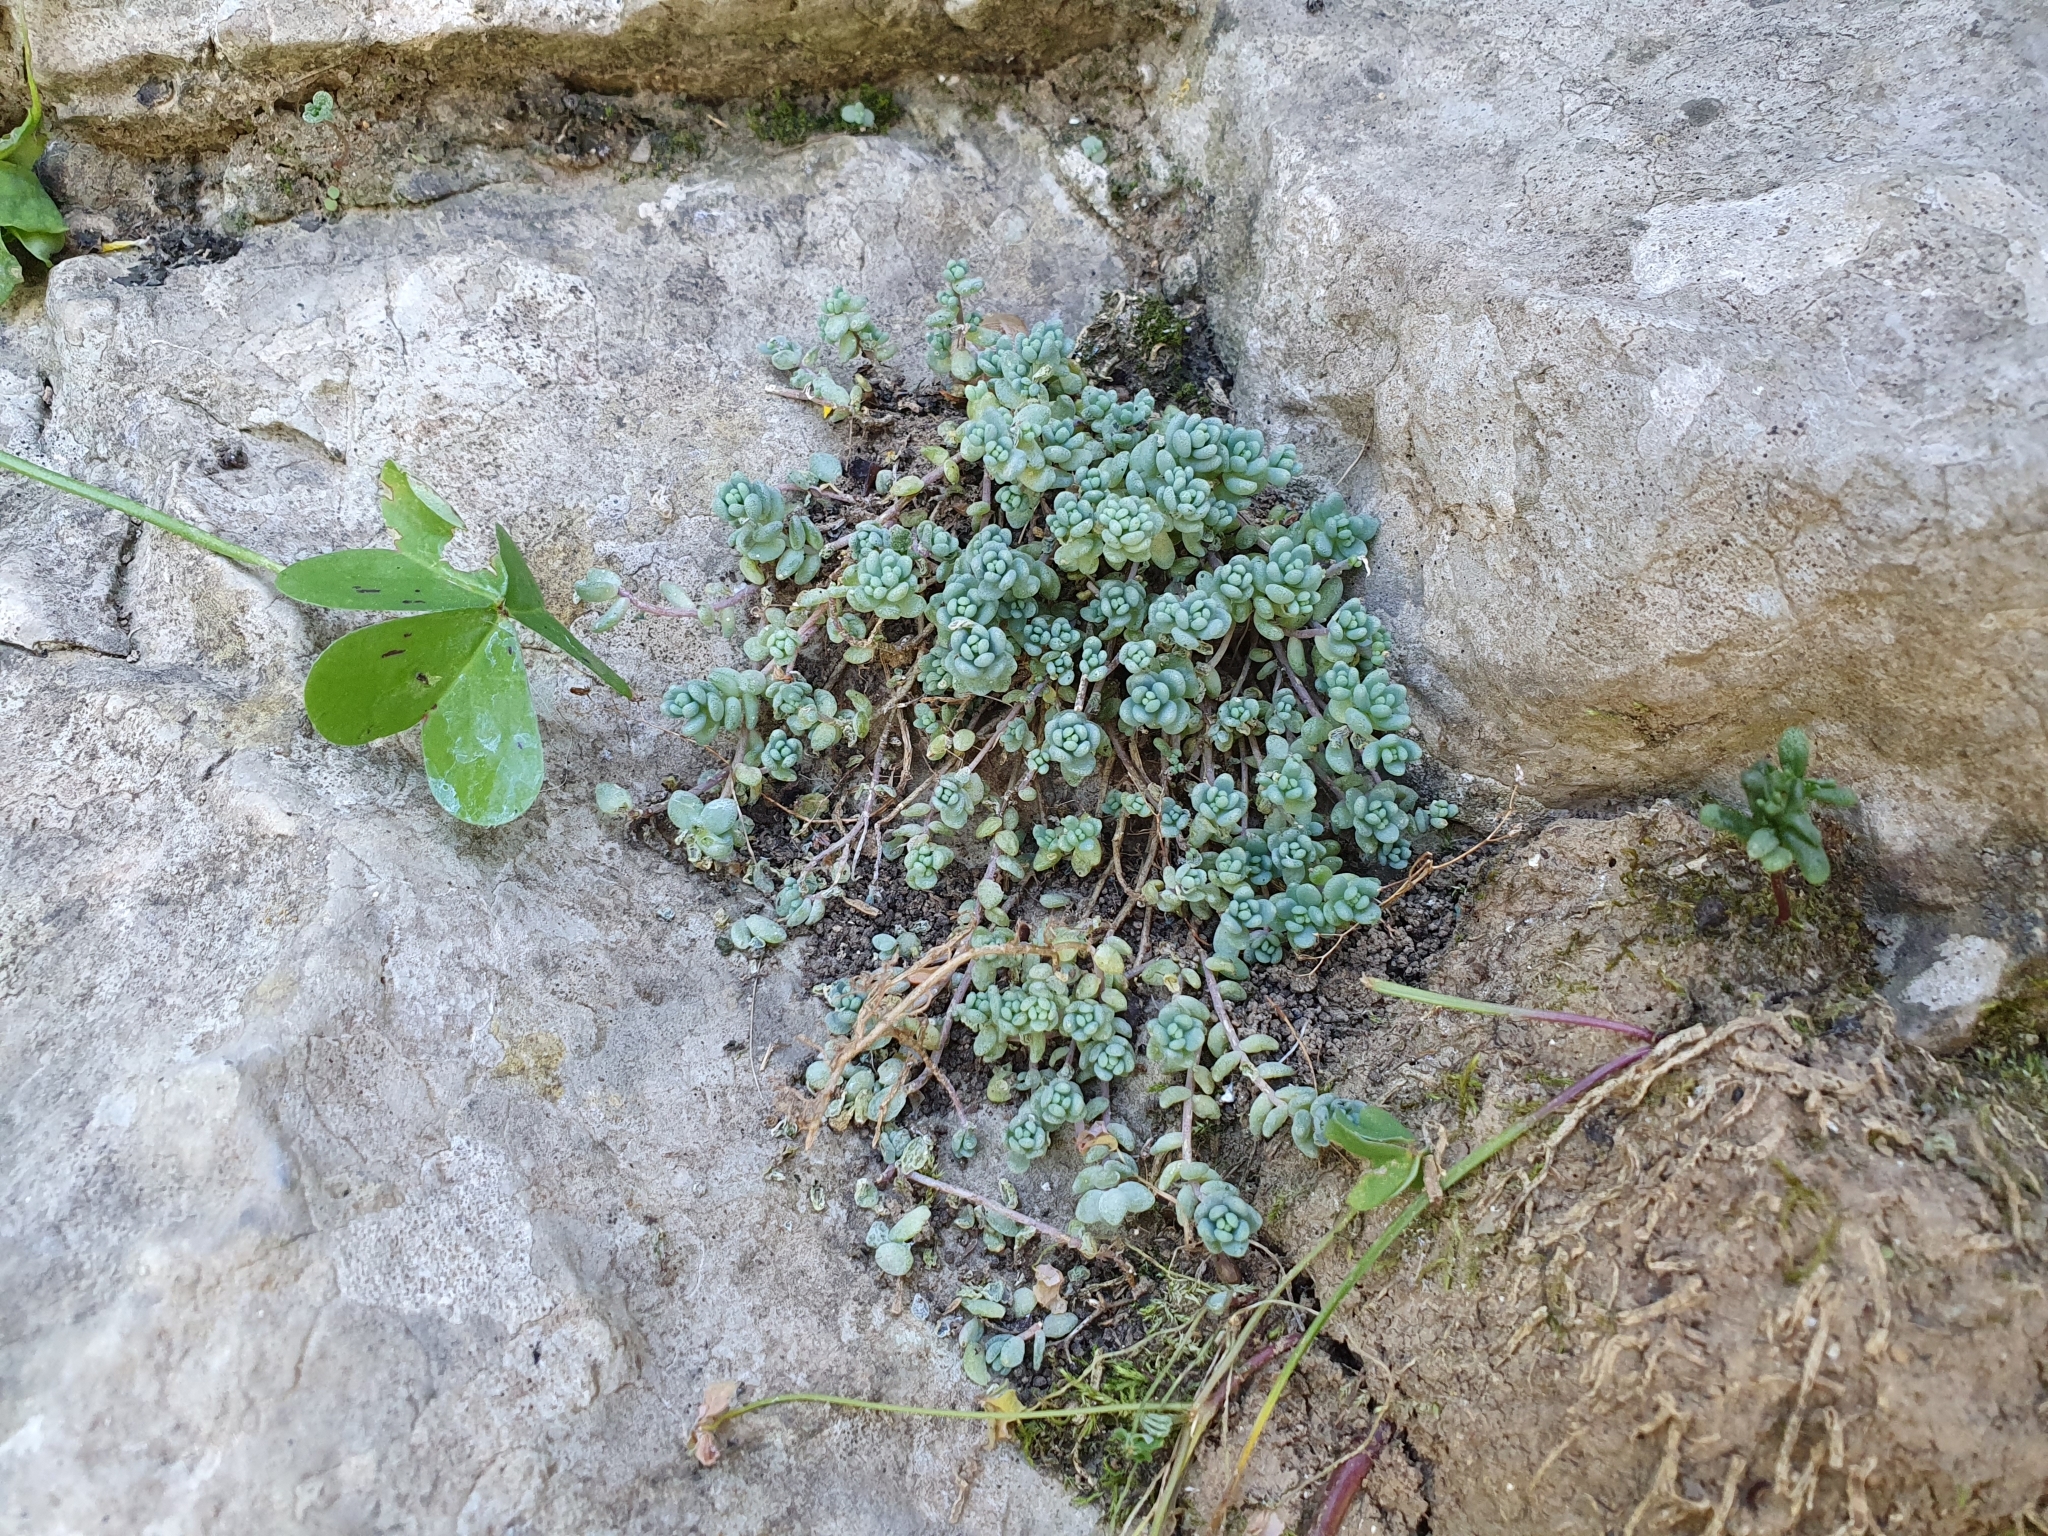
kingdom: Plantae
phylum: Tracheophyta
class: Magnoliopsida
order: Saxifragales
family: Crassulaceae
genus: Sedum
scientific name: Sedum dasyphyllum
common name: Thick-leaf stonecrop
